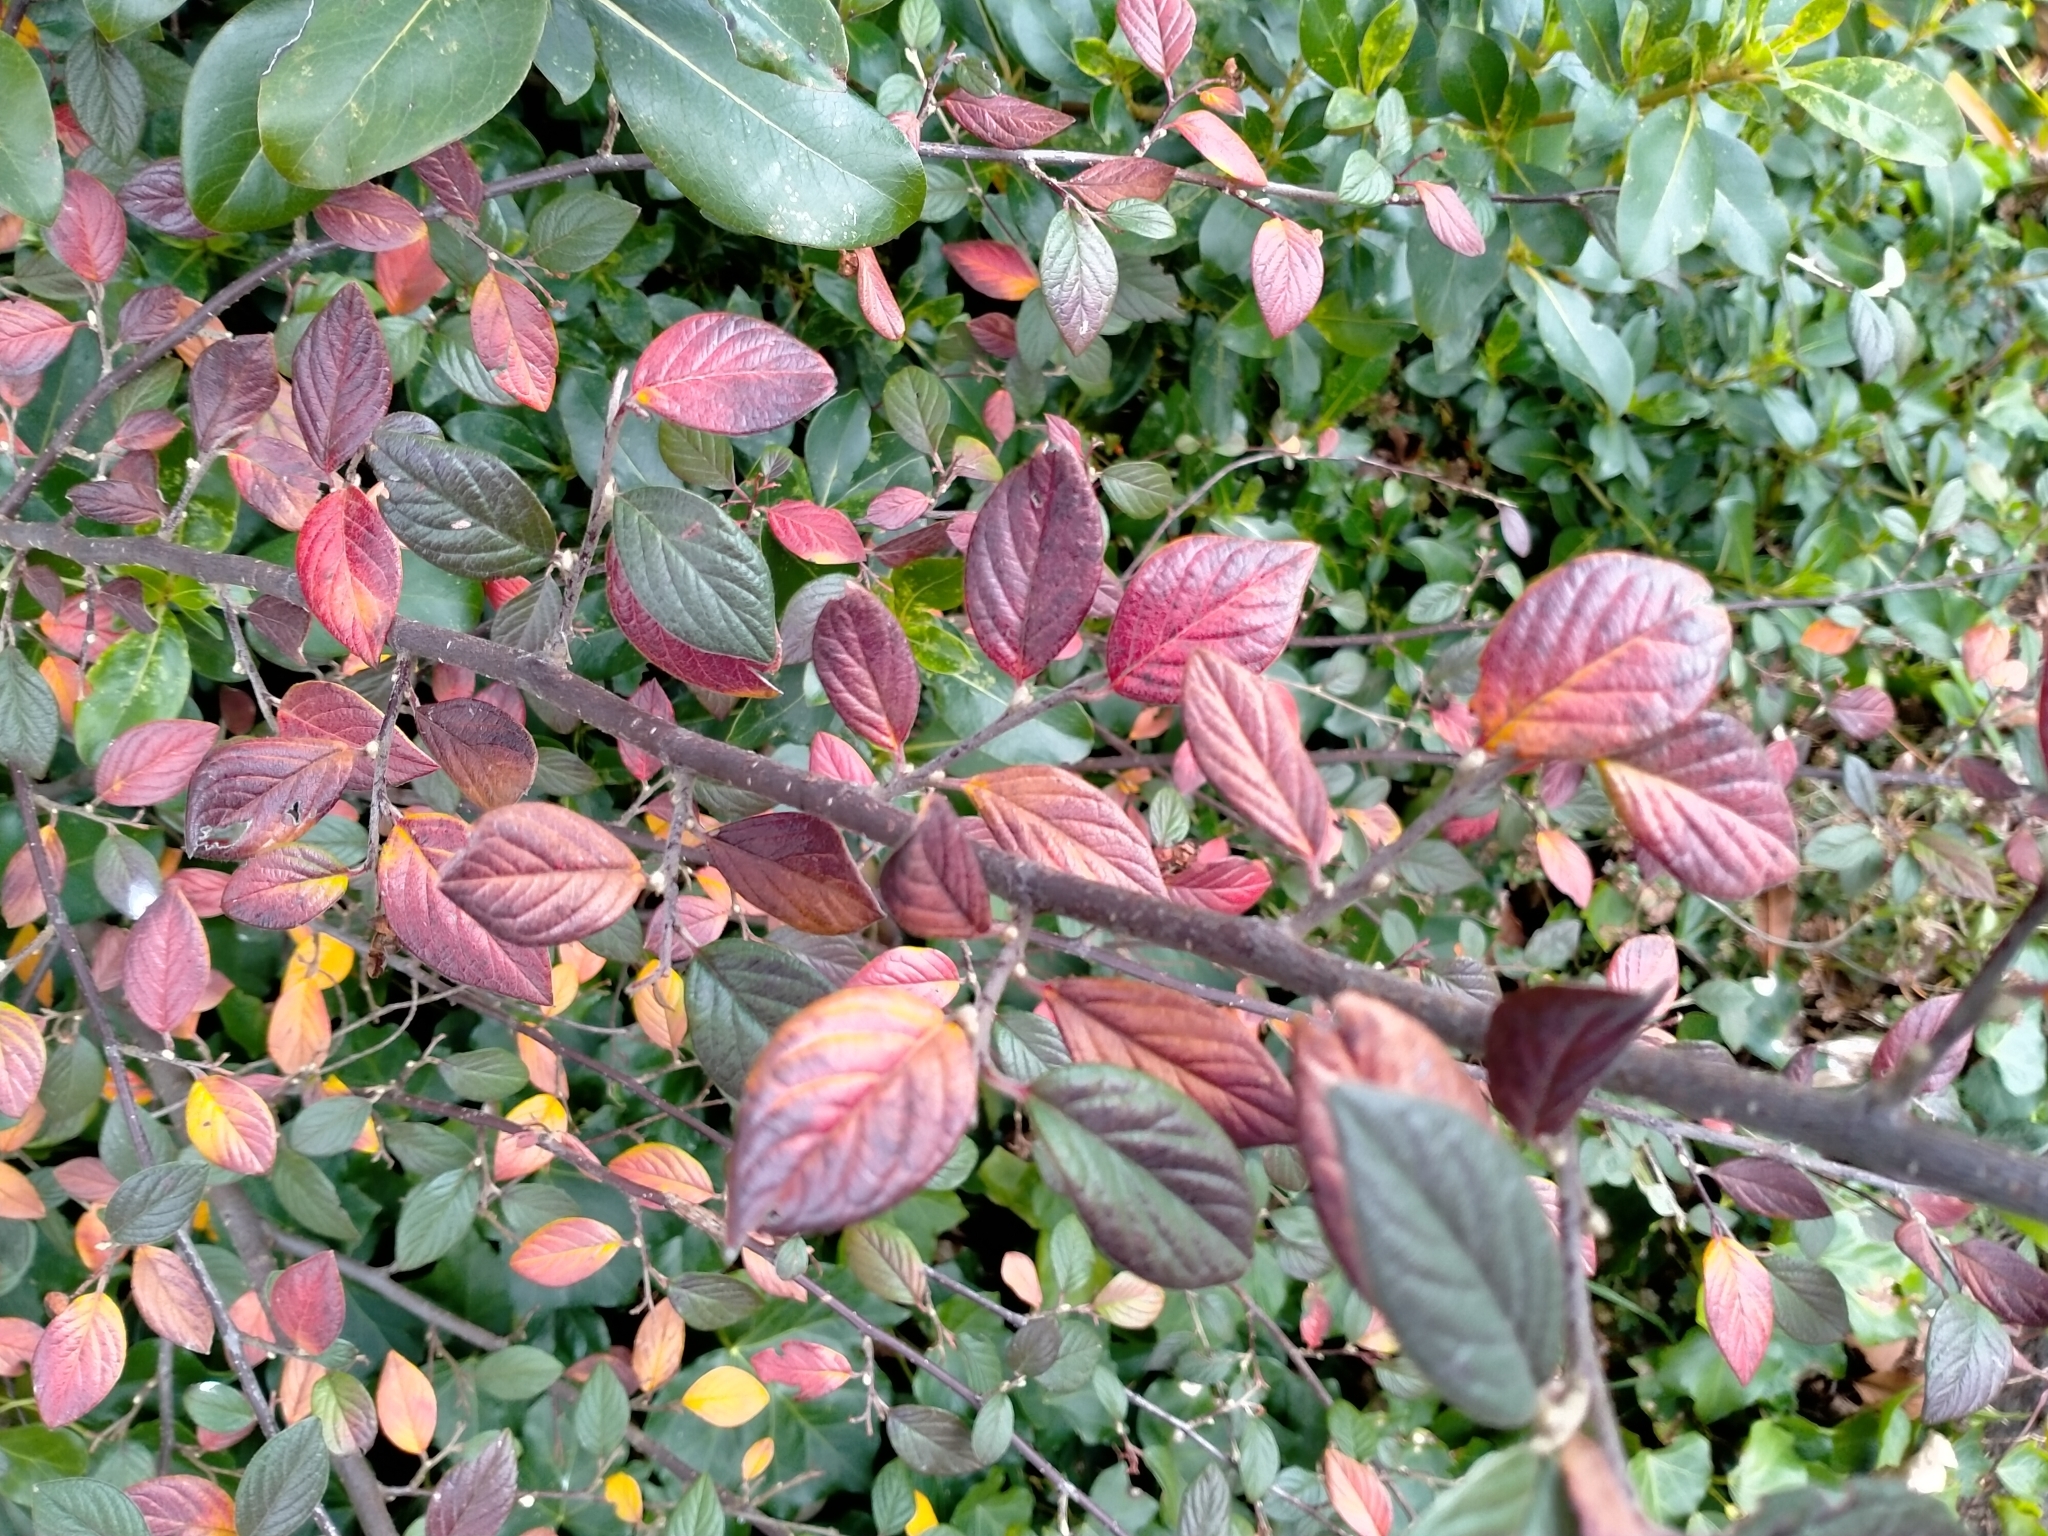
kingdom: Plantae
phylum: Tracheophyta
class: Magnoliopsida
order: Rosales
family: Rosaceae
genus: Cotoneaster
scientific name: Cotoneaster franchetii
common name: Franchet's cotoneaster
